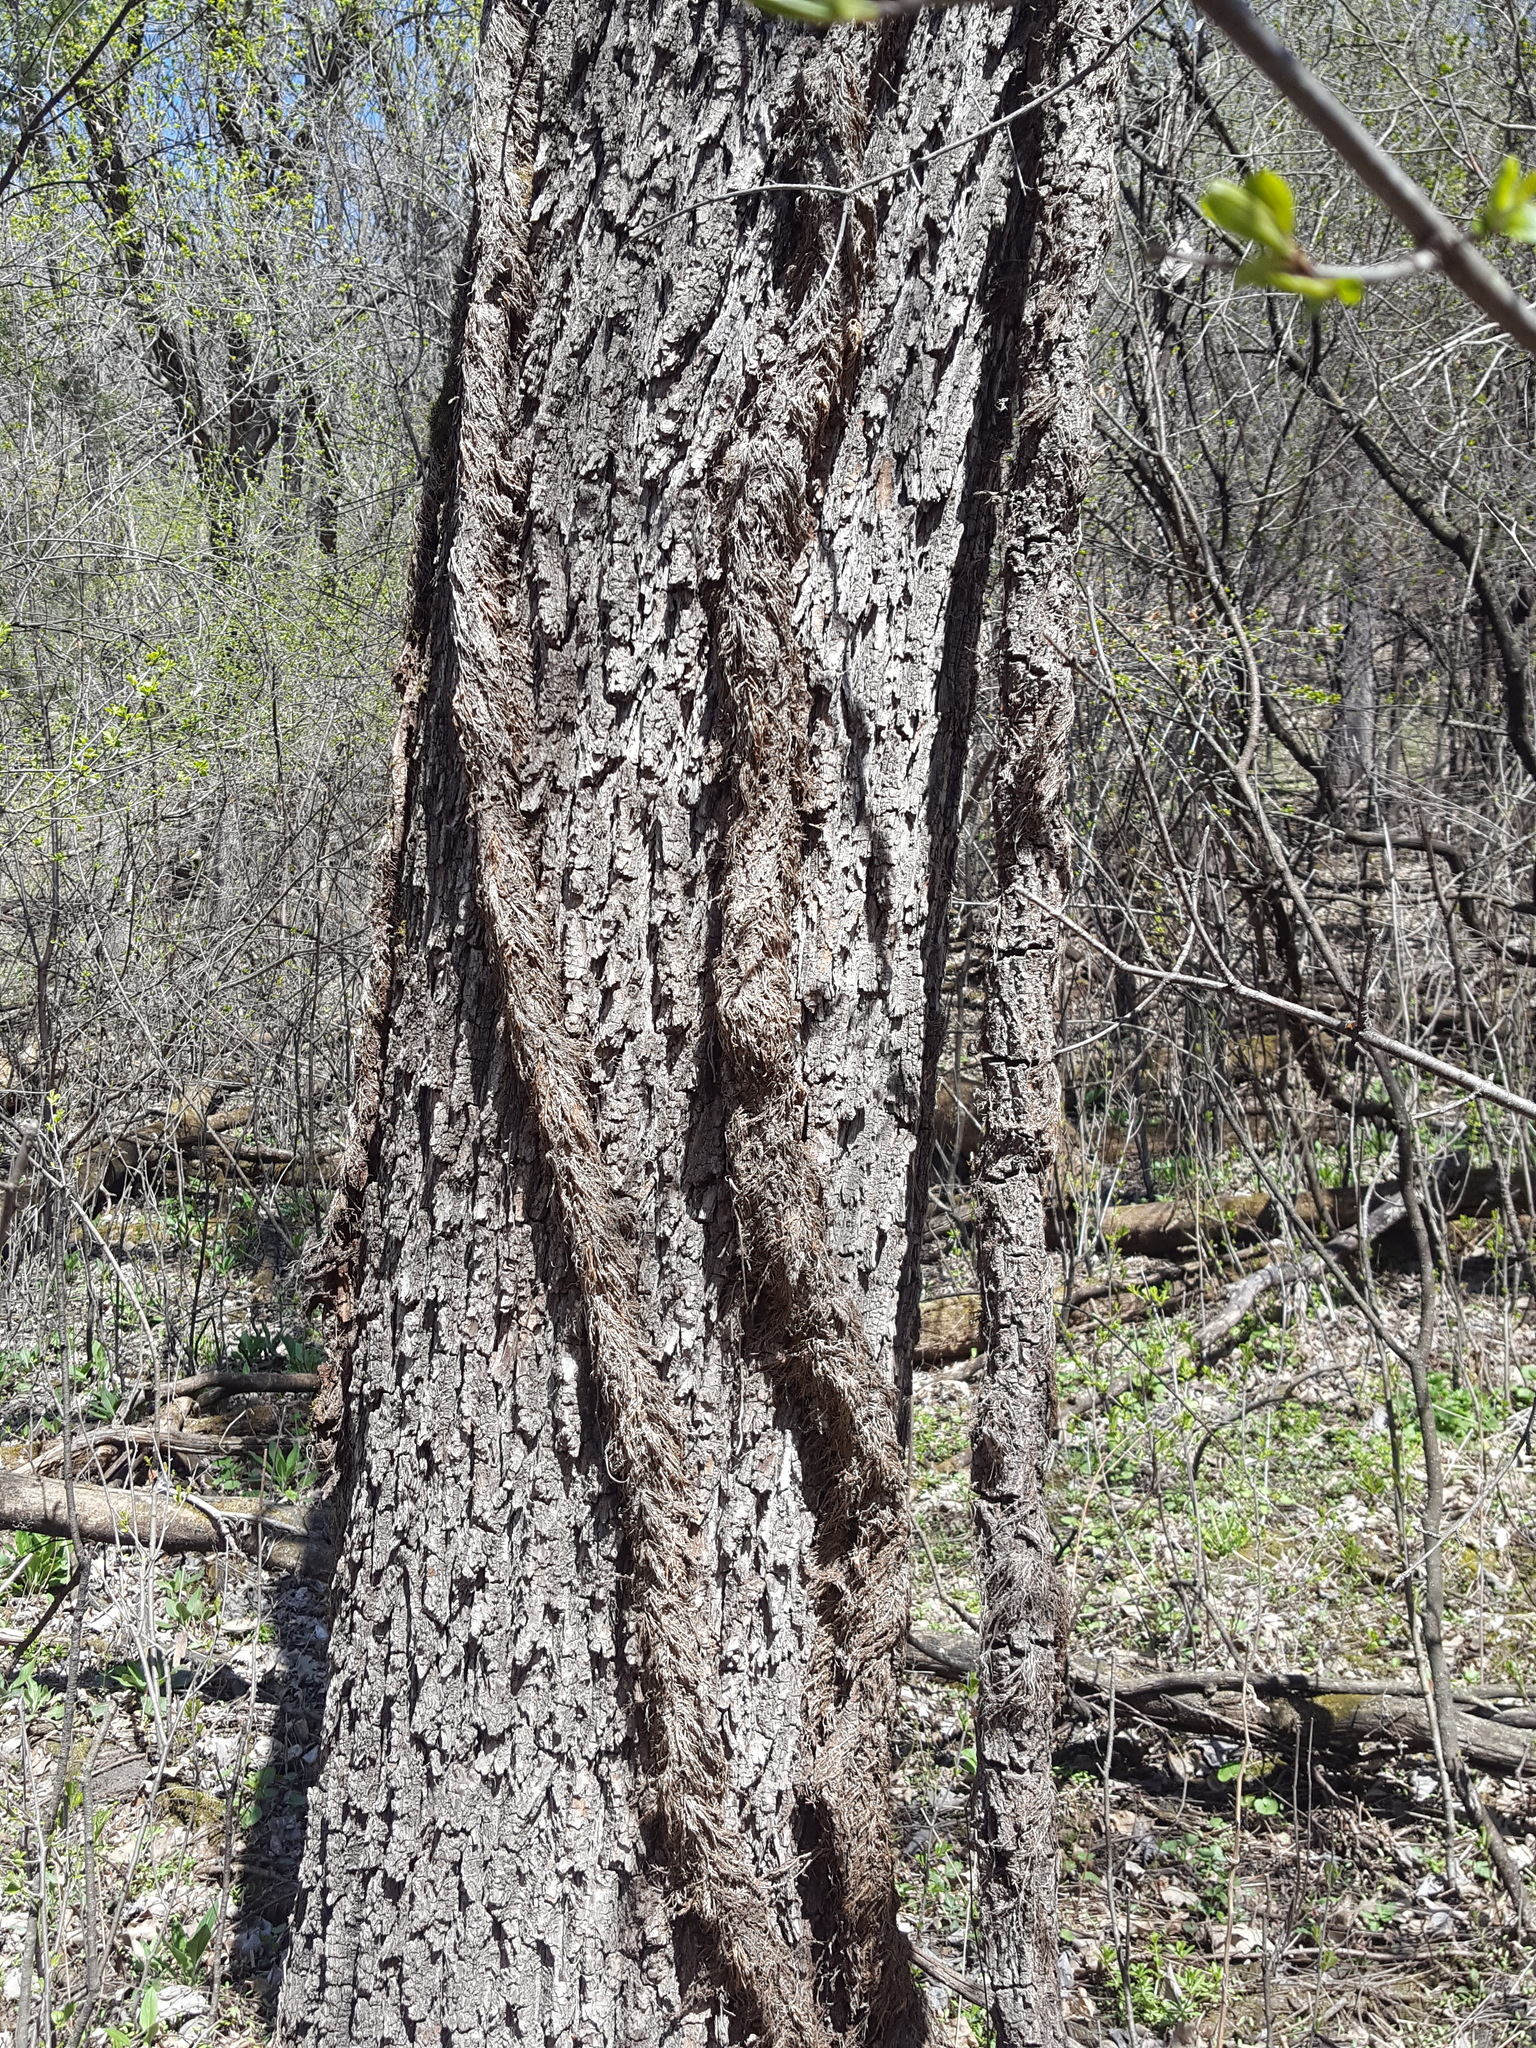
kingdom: Plantae
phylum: Tracheophyta
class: Magnoliopsida
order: Vitales
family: Vitaceae
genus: Parthenocissus
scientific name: Parthenocissus quinquefolia
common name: Virginia-creeper
